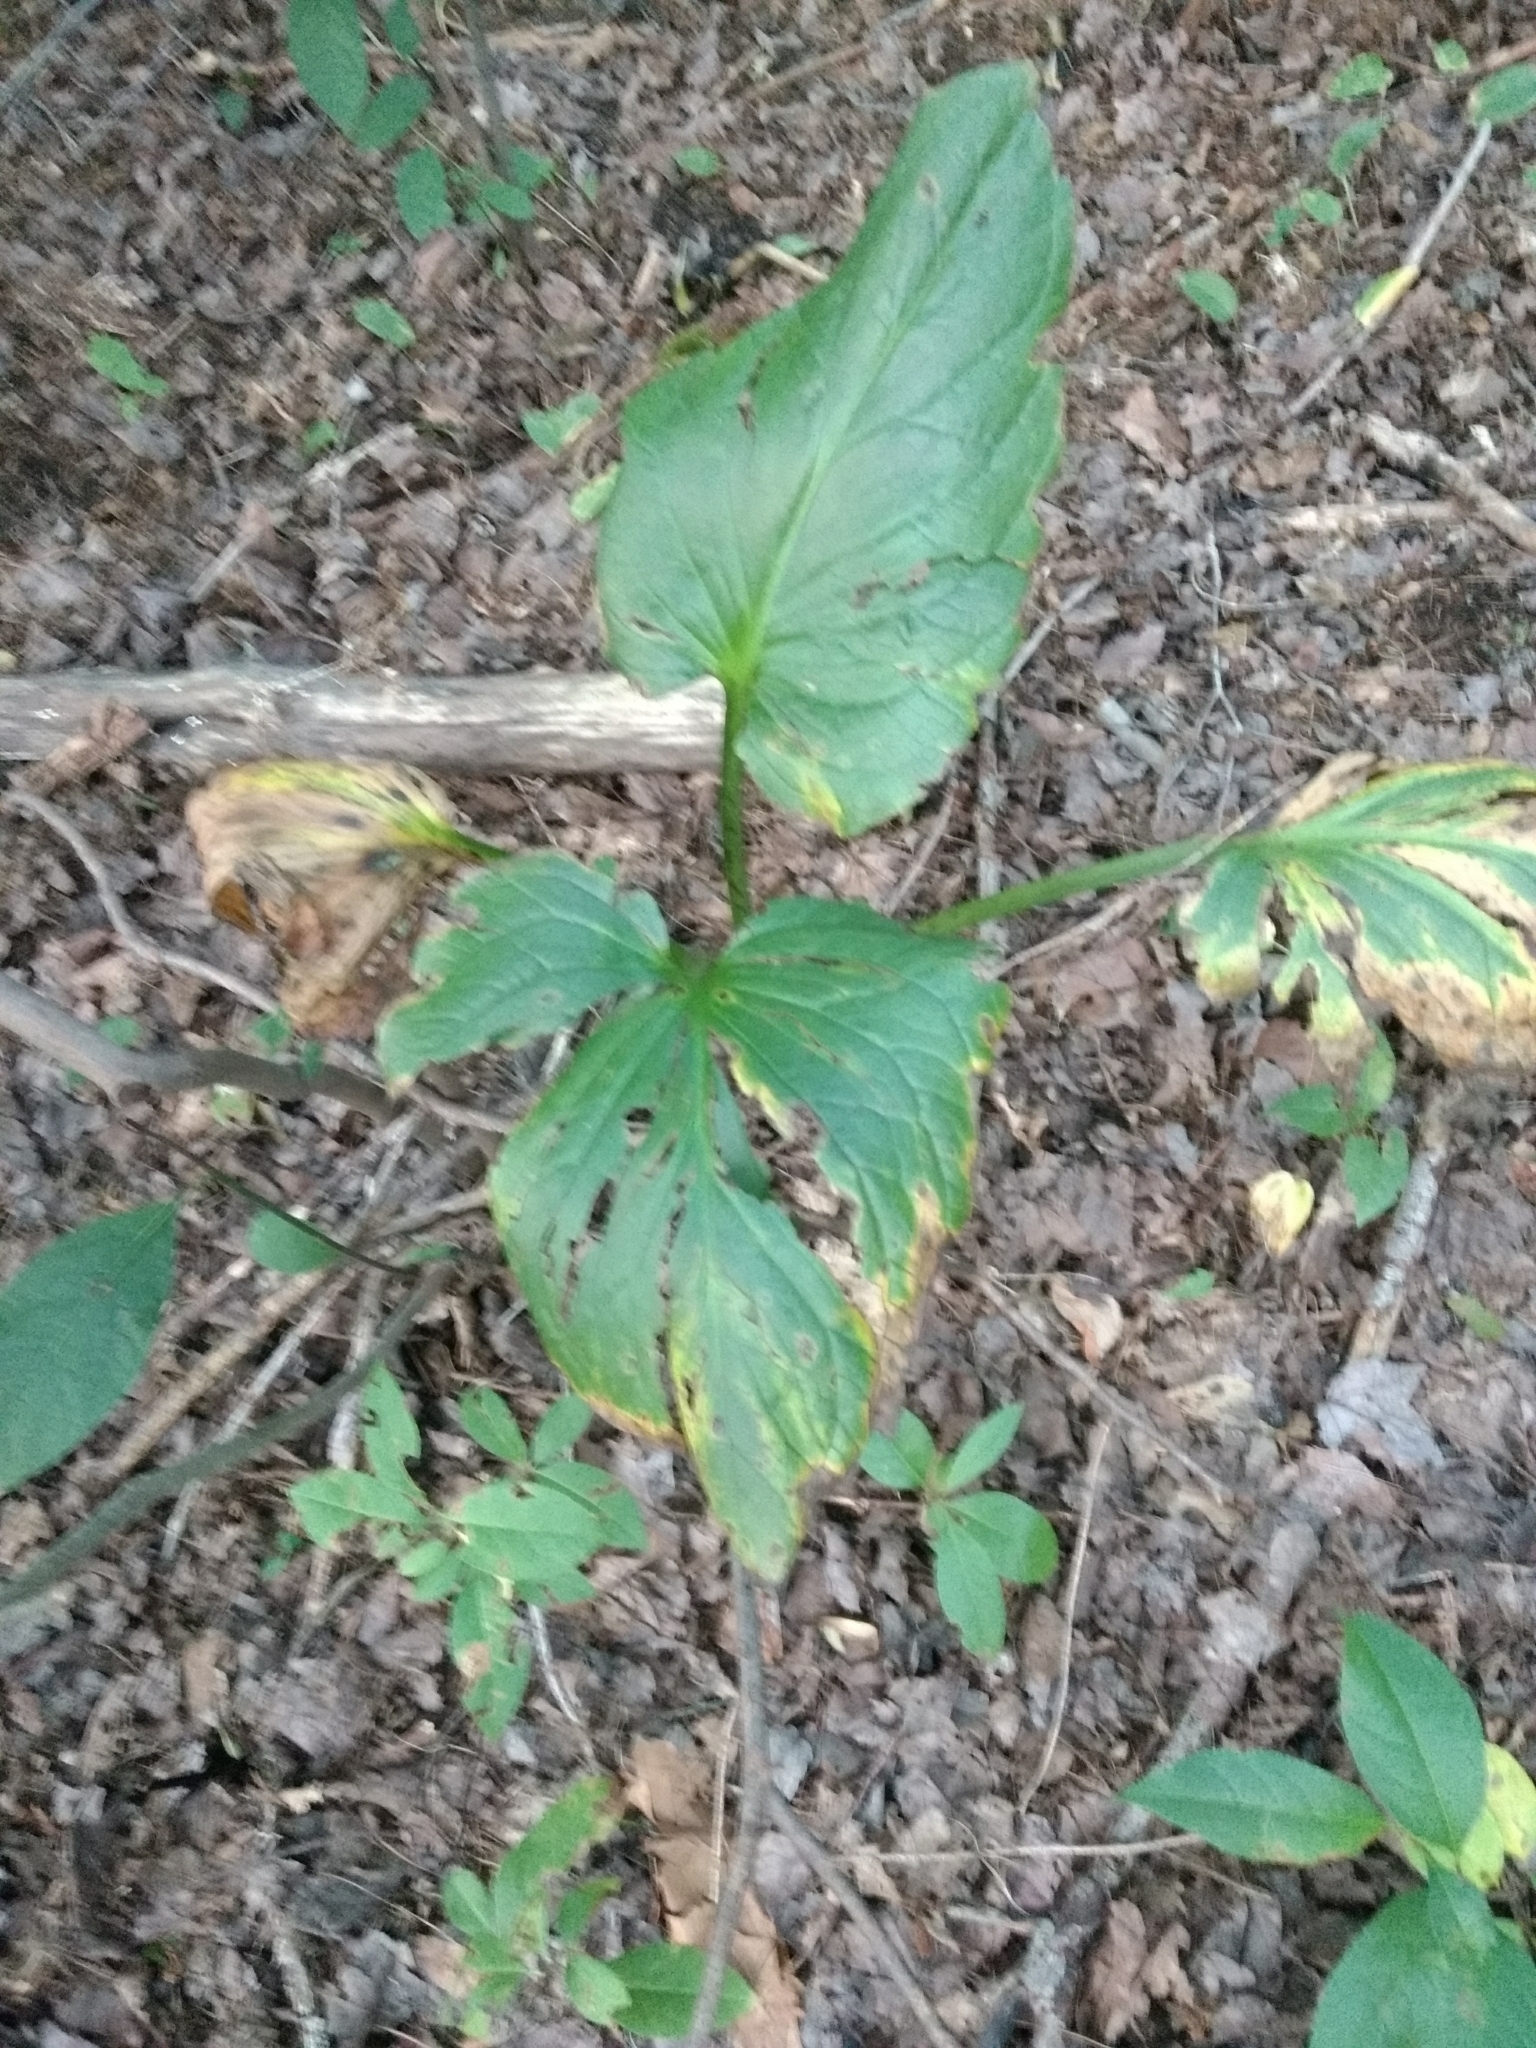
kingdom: Plantae
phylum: Tracheophyta
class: Liliopsida
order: Alismatales
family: Araceae
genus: Symplocarpus
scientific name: Symplocarpus foetidus
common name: Eastern skunk cabbage
